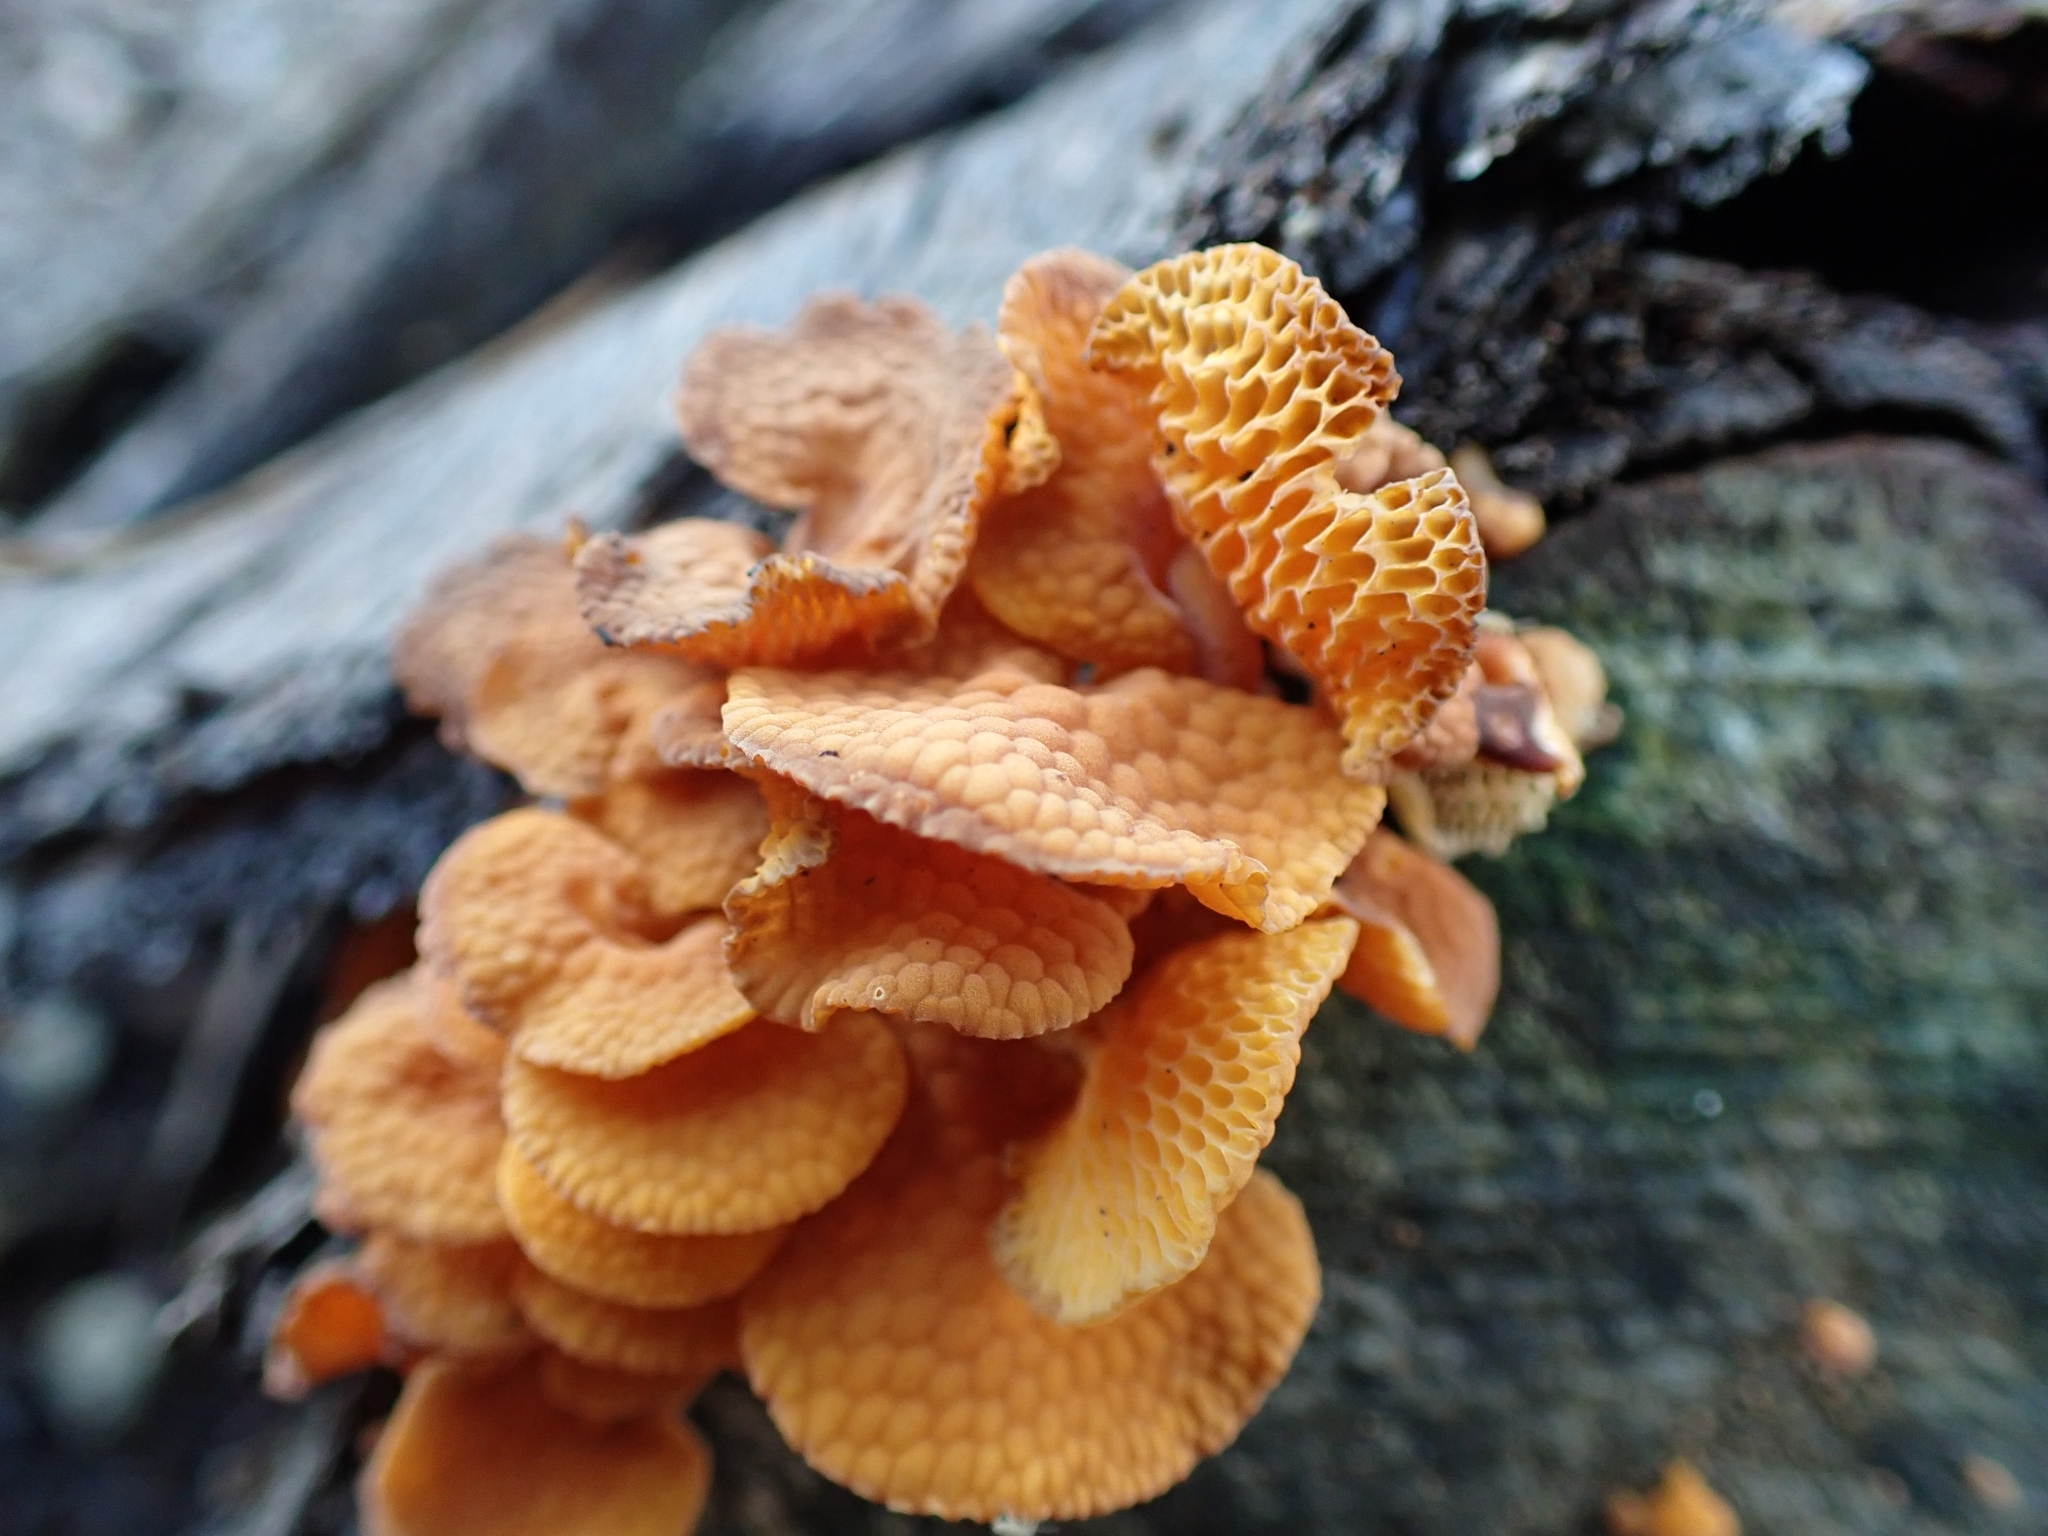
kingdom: Fungi
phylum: Basidiomycota
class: Agaricomycetes
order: Agaricales
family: Mycenaceae
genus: Favolaschia
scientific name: Favolaschia claudopus
